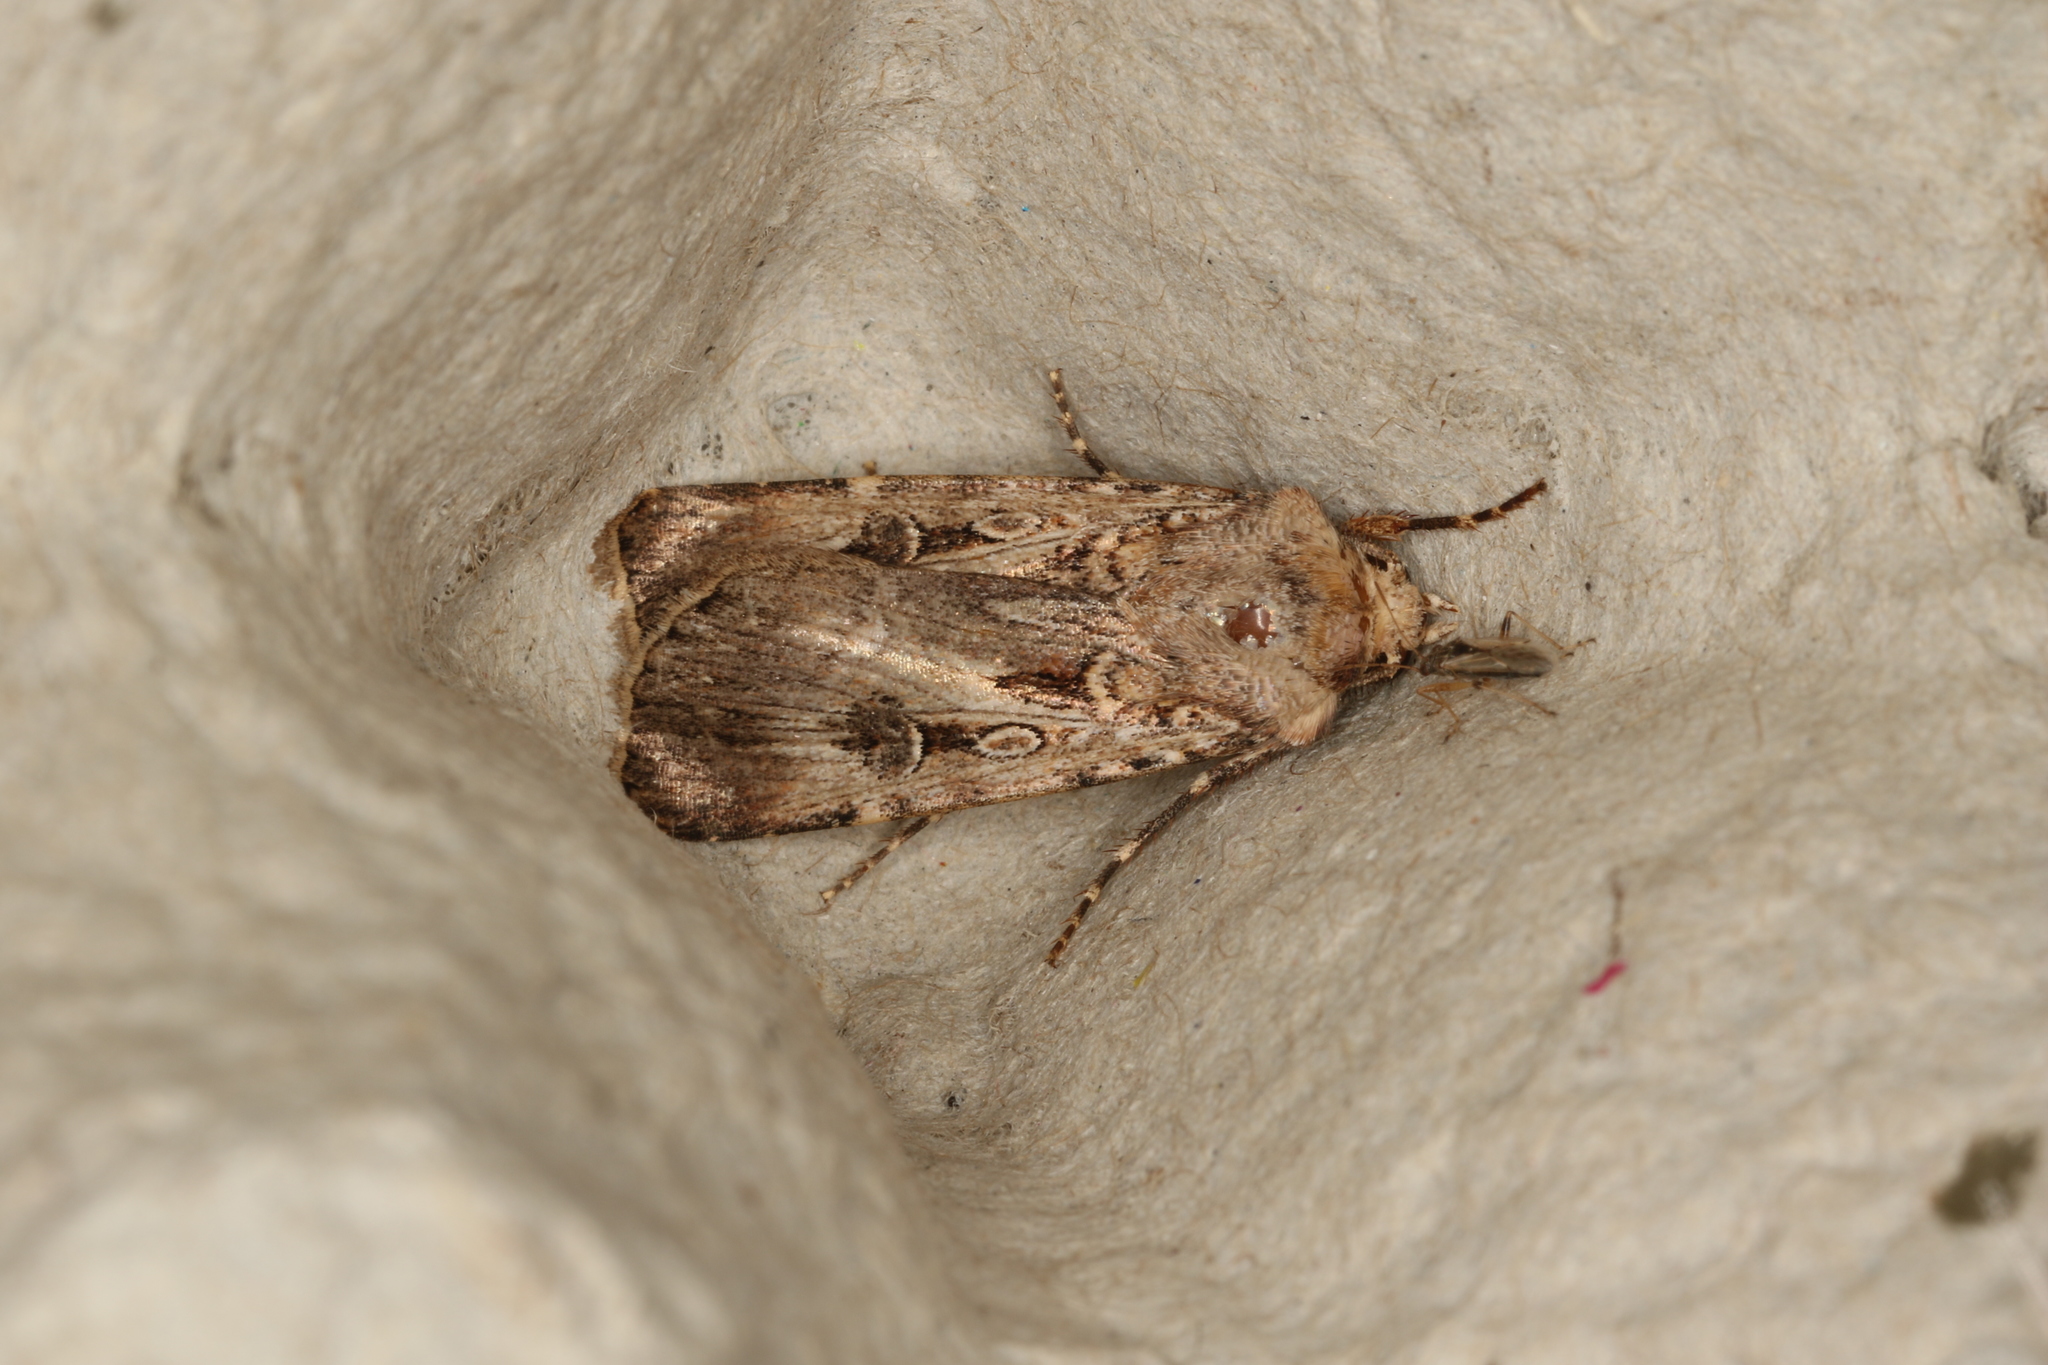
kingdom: Animalia
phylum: Arthropoda
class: Insecta
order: Lepidoptera
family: Noctuidae
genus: Agrotis
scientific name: Agrotis munda
